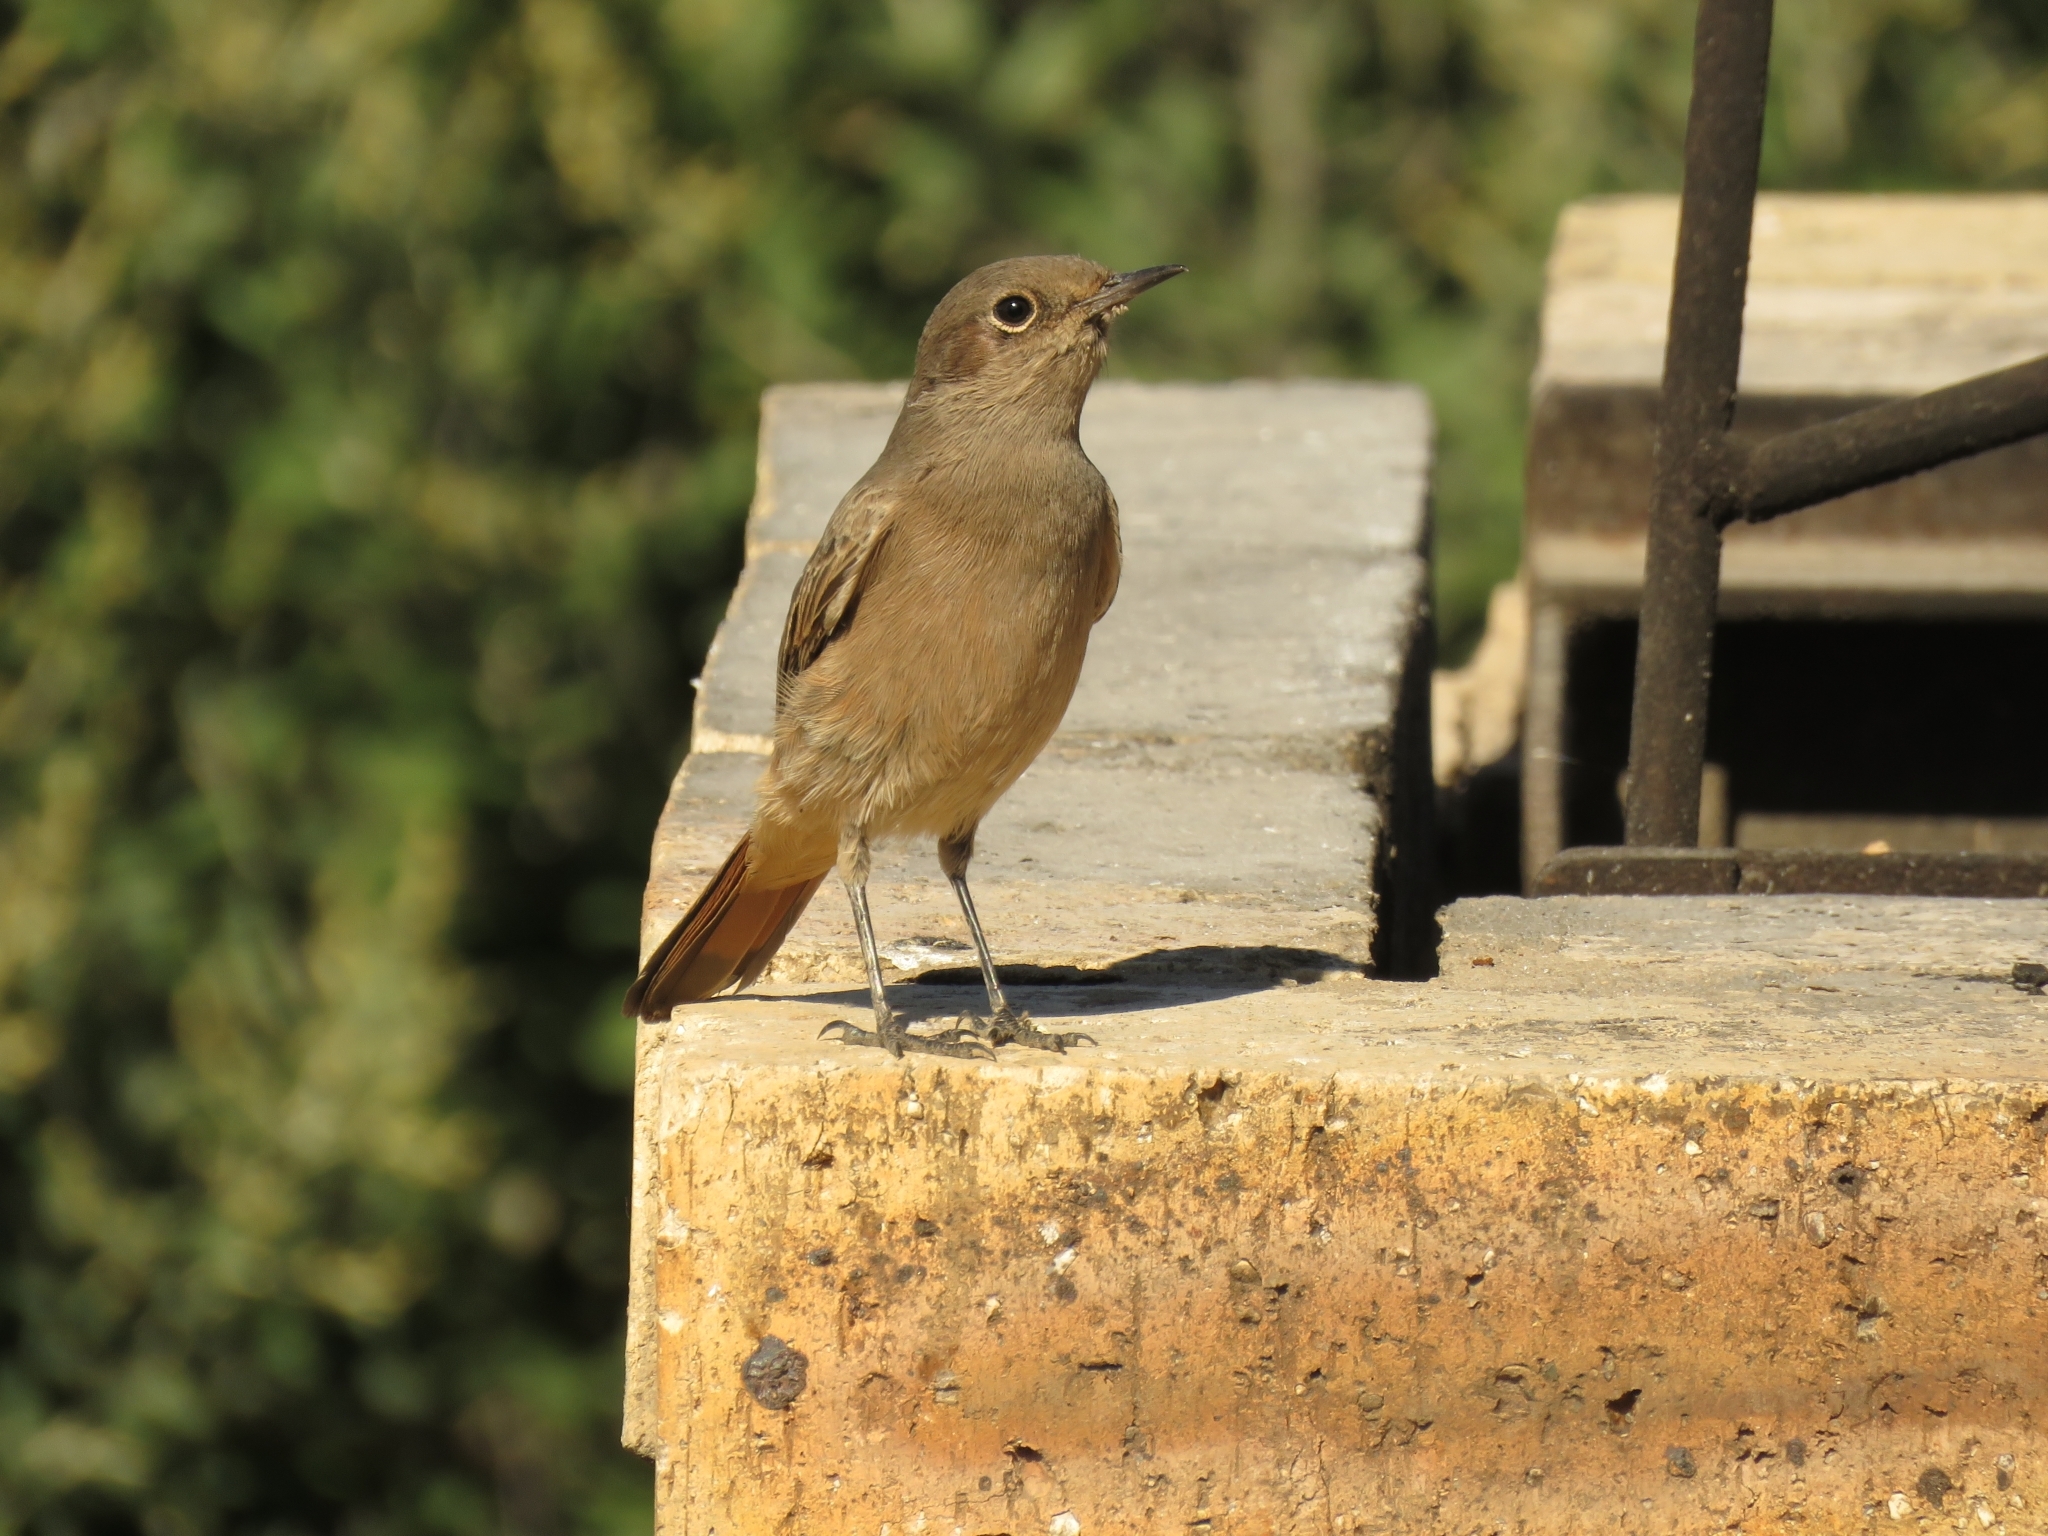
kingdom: Animalia
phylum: Chordata
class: Aves
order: Passeriformes
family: Muscicapidae
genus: Oenanthe
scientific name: Oenanthe familiaris
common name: Familiar chat
